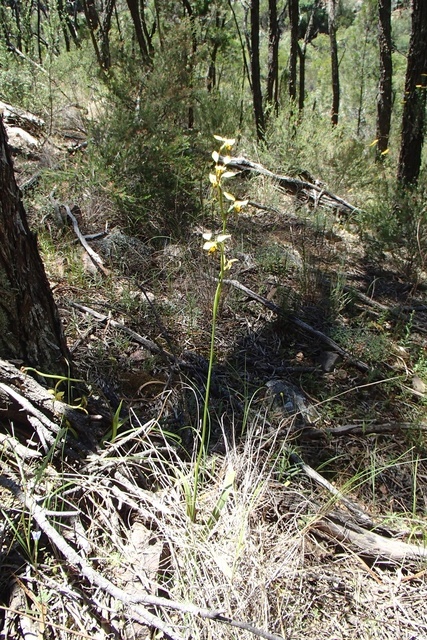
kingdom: Plantae
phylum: Tracheophyta
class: Liliopsida
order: Asparagales
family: Orchidaceae
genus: Diuris
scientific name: Diuris sulphurea
